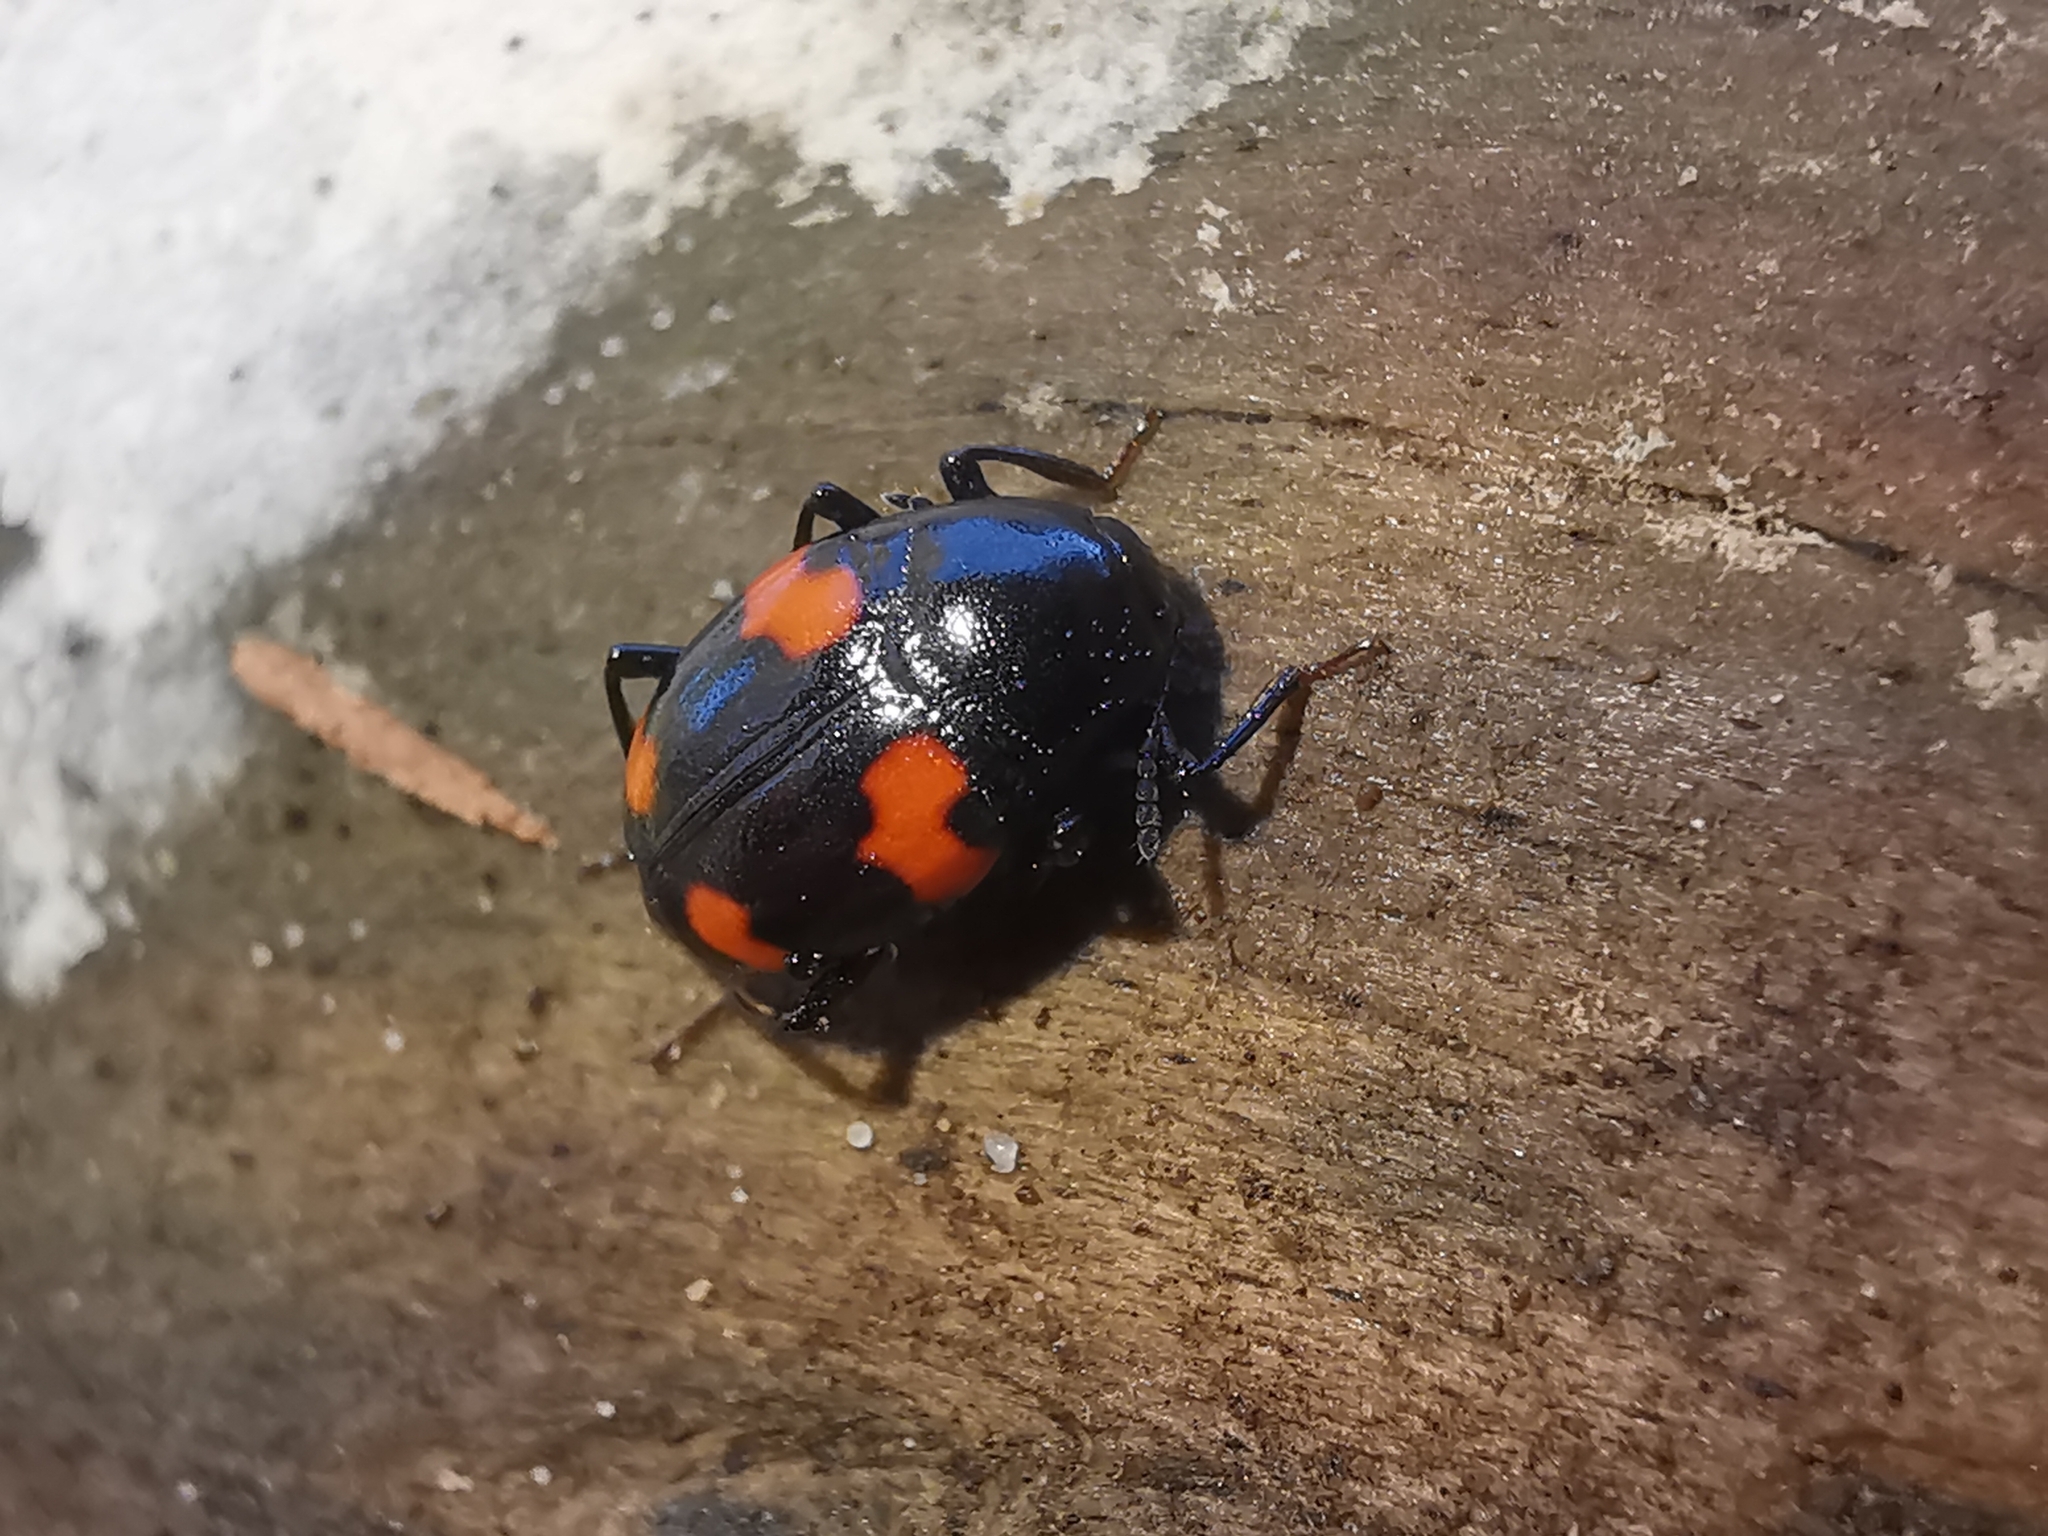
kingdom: Animalia
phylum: Arthropoda
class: Insecta
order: Coleoptera
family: Staphylinidae
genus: Scaphidium
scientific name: Scaphidium quadrimaculatum
